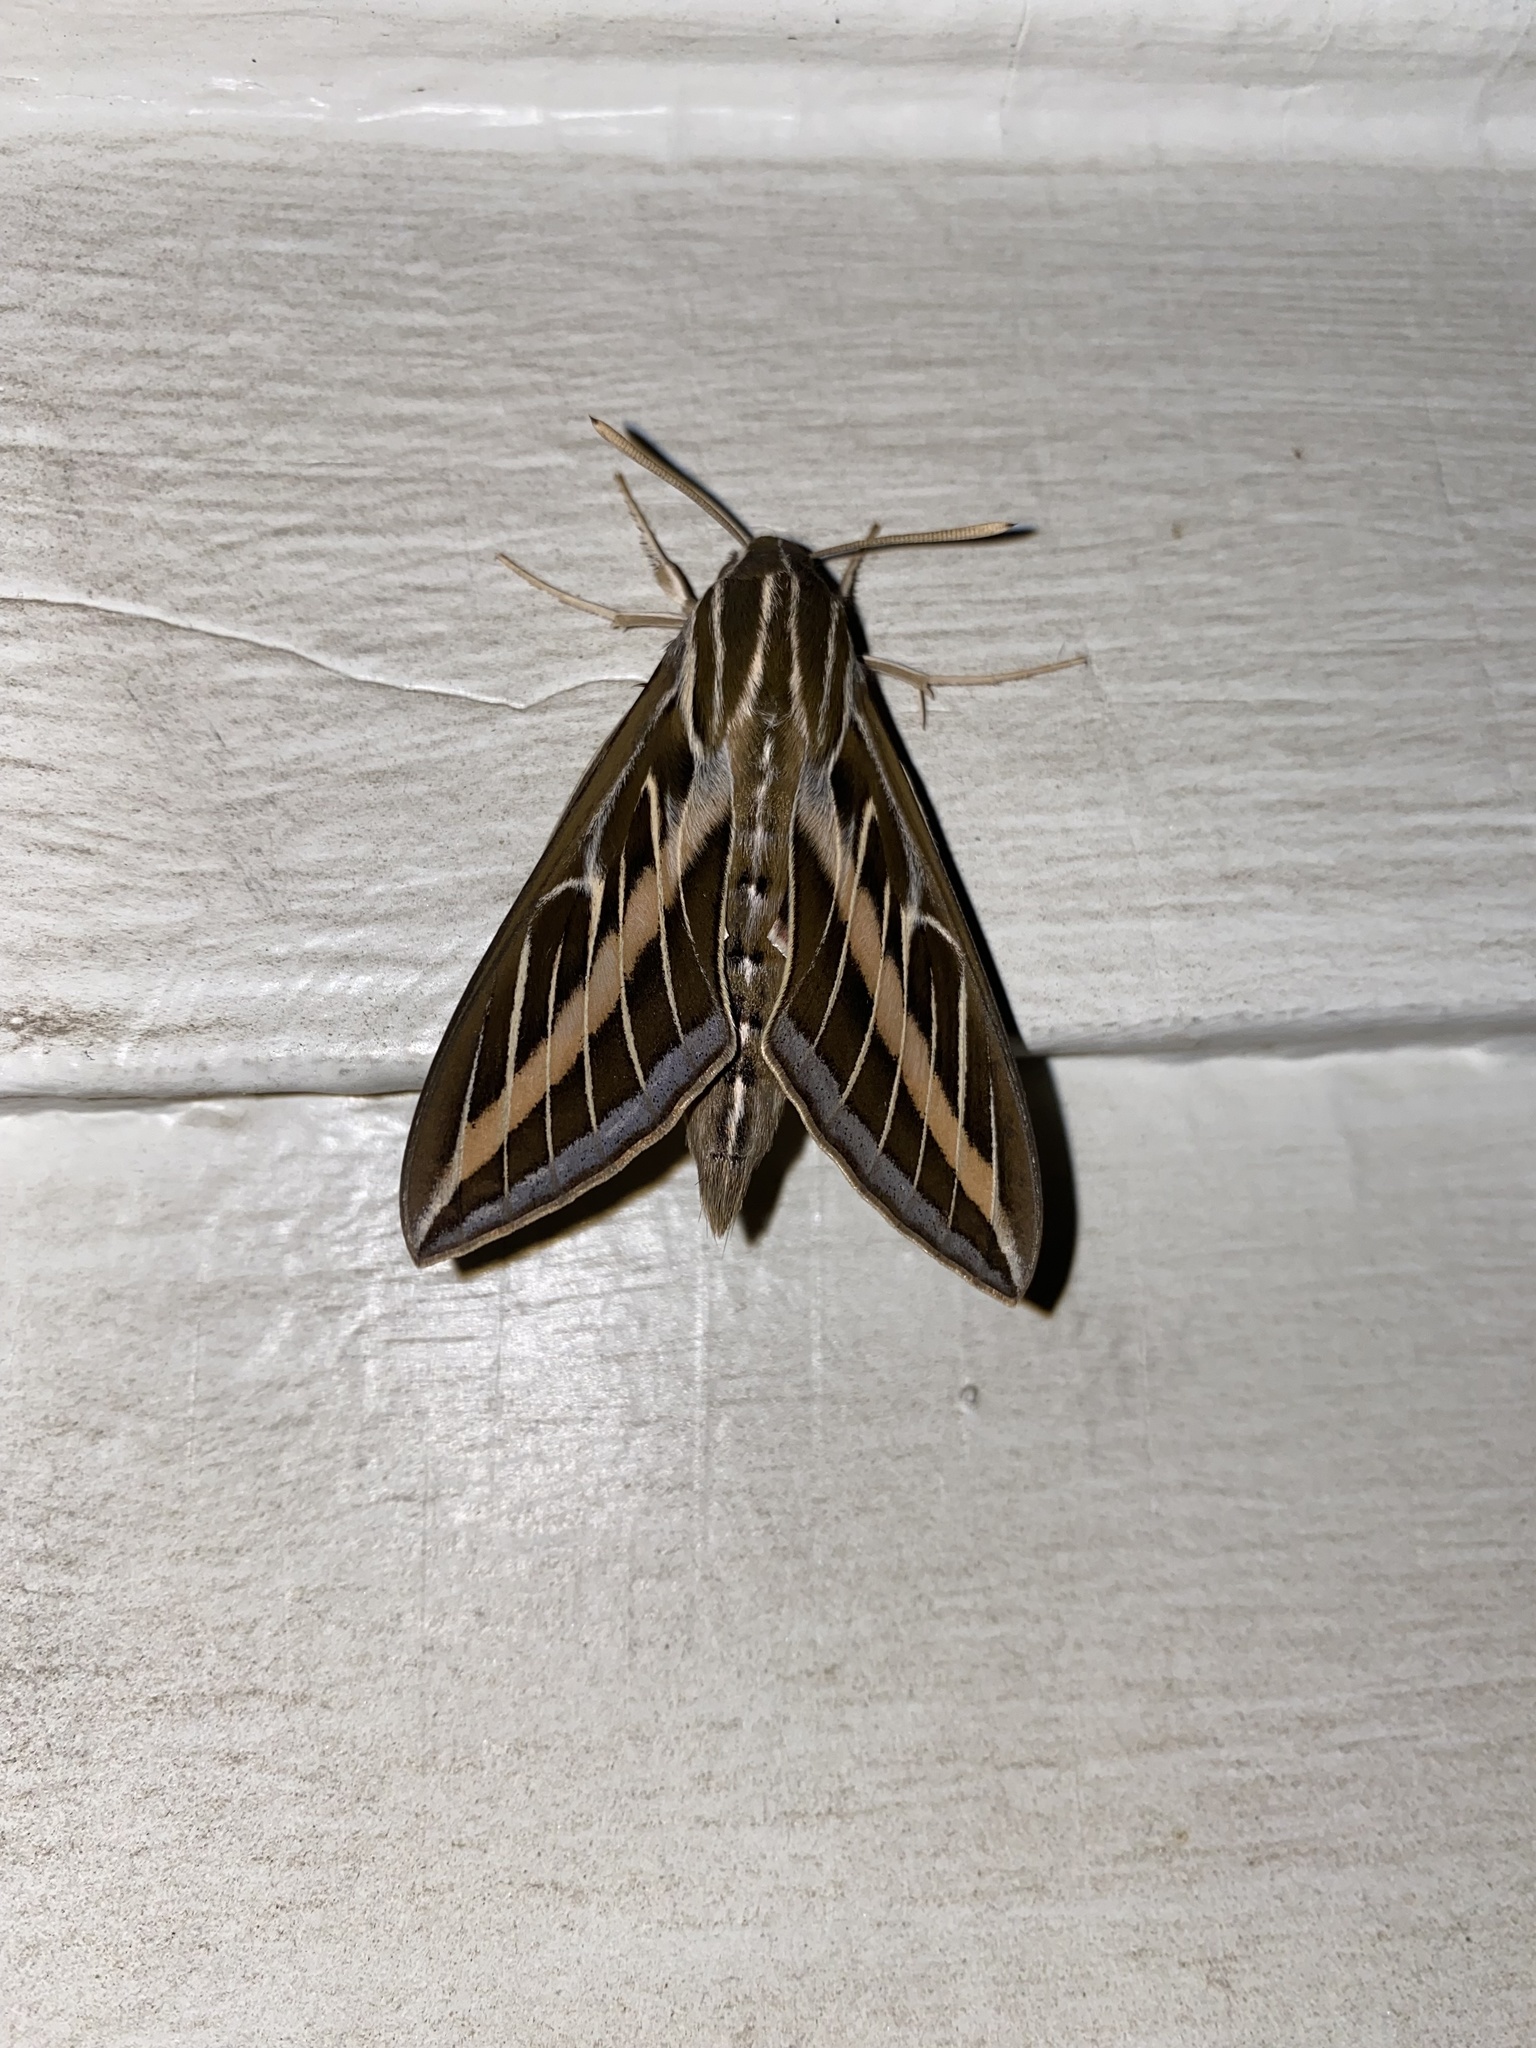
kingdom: Animalia
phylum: Arthropoda
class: Insecta
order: Lepidoptera
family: Sphingidae
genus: Hyles
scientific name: Hyles lineata
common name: White-lined sphinx
